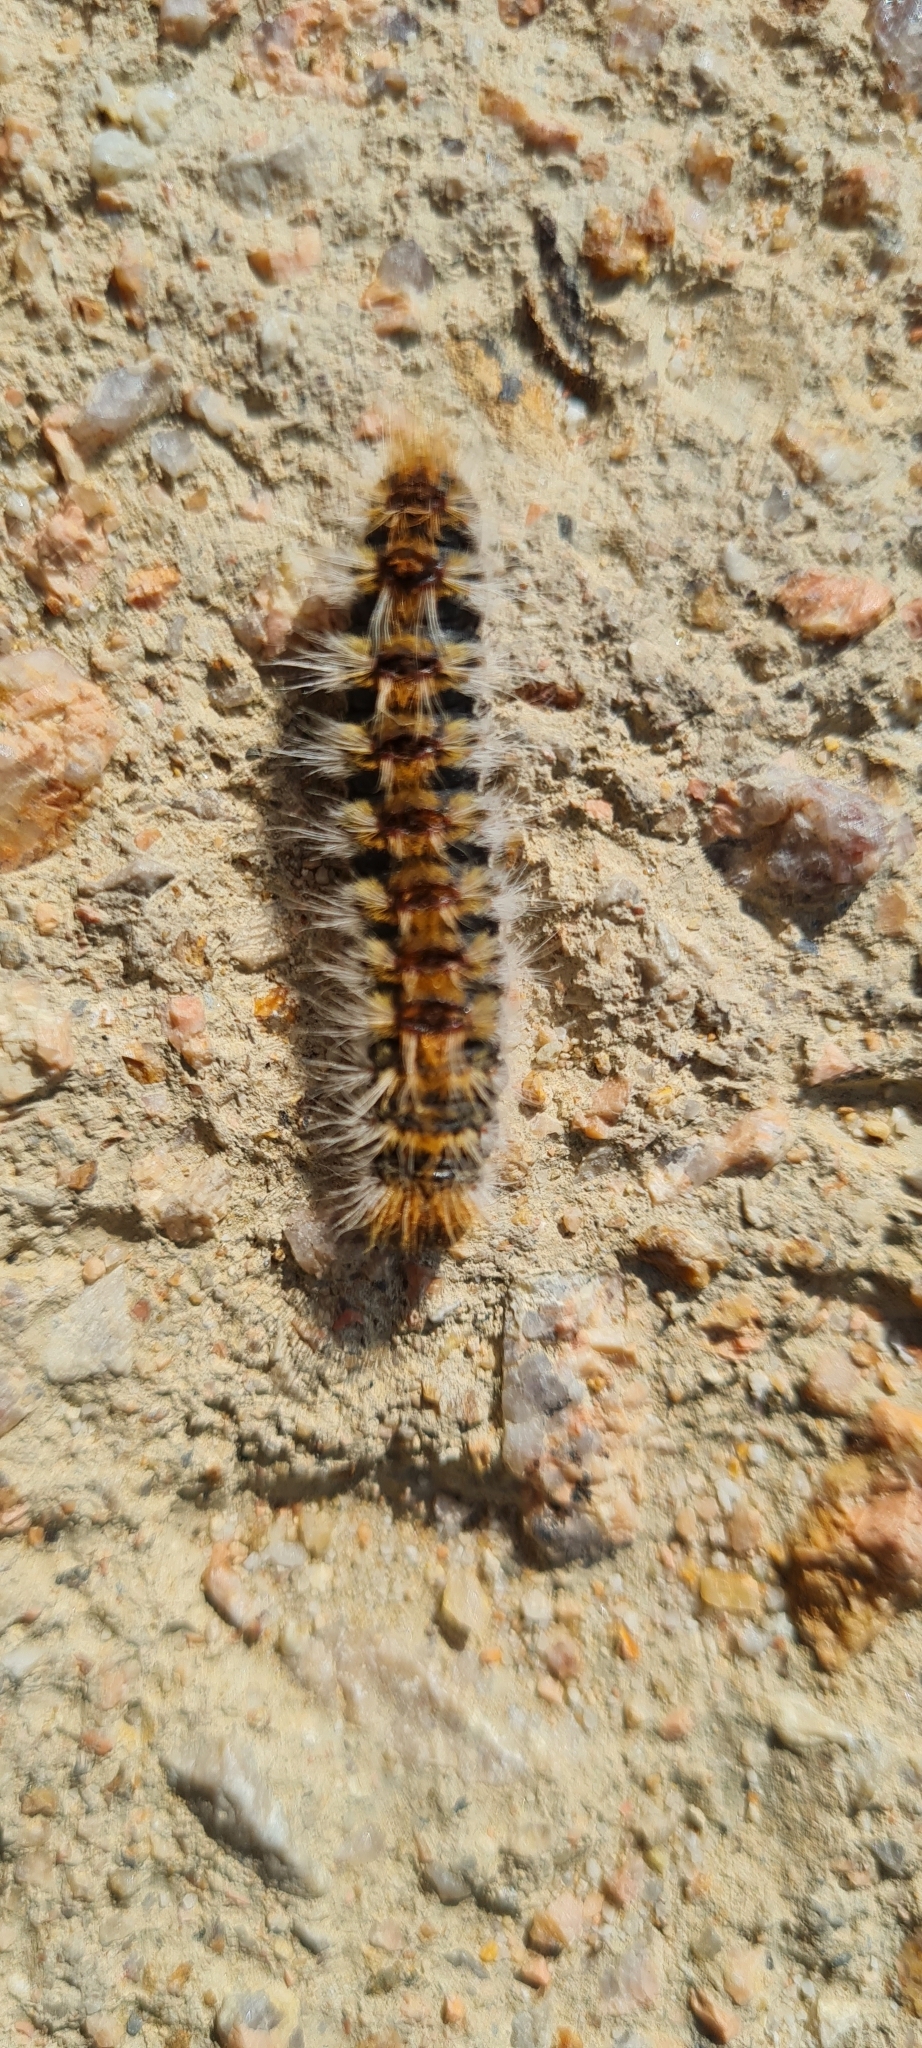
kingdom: Animalia
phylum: Arthropoda
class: Insecta
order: Lepidoptera
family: Notodontidae
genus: Thaumetopoea
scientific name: Thaumetopoea pityocampa
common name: Pine processionary
